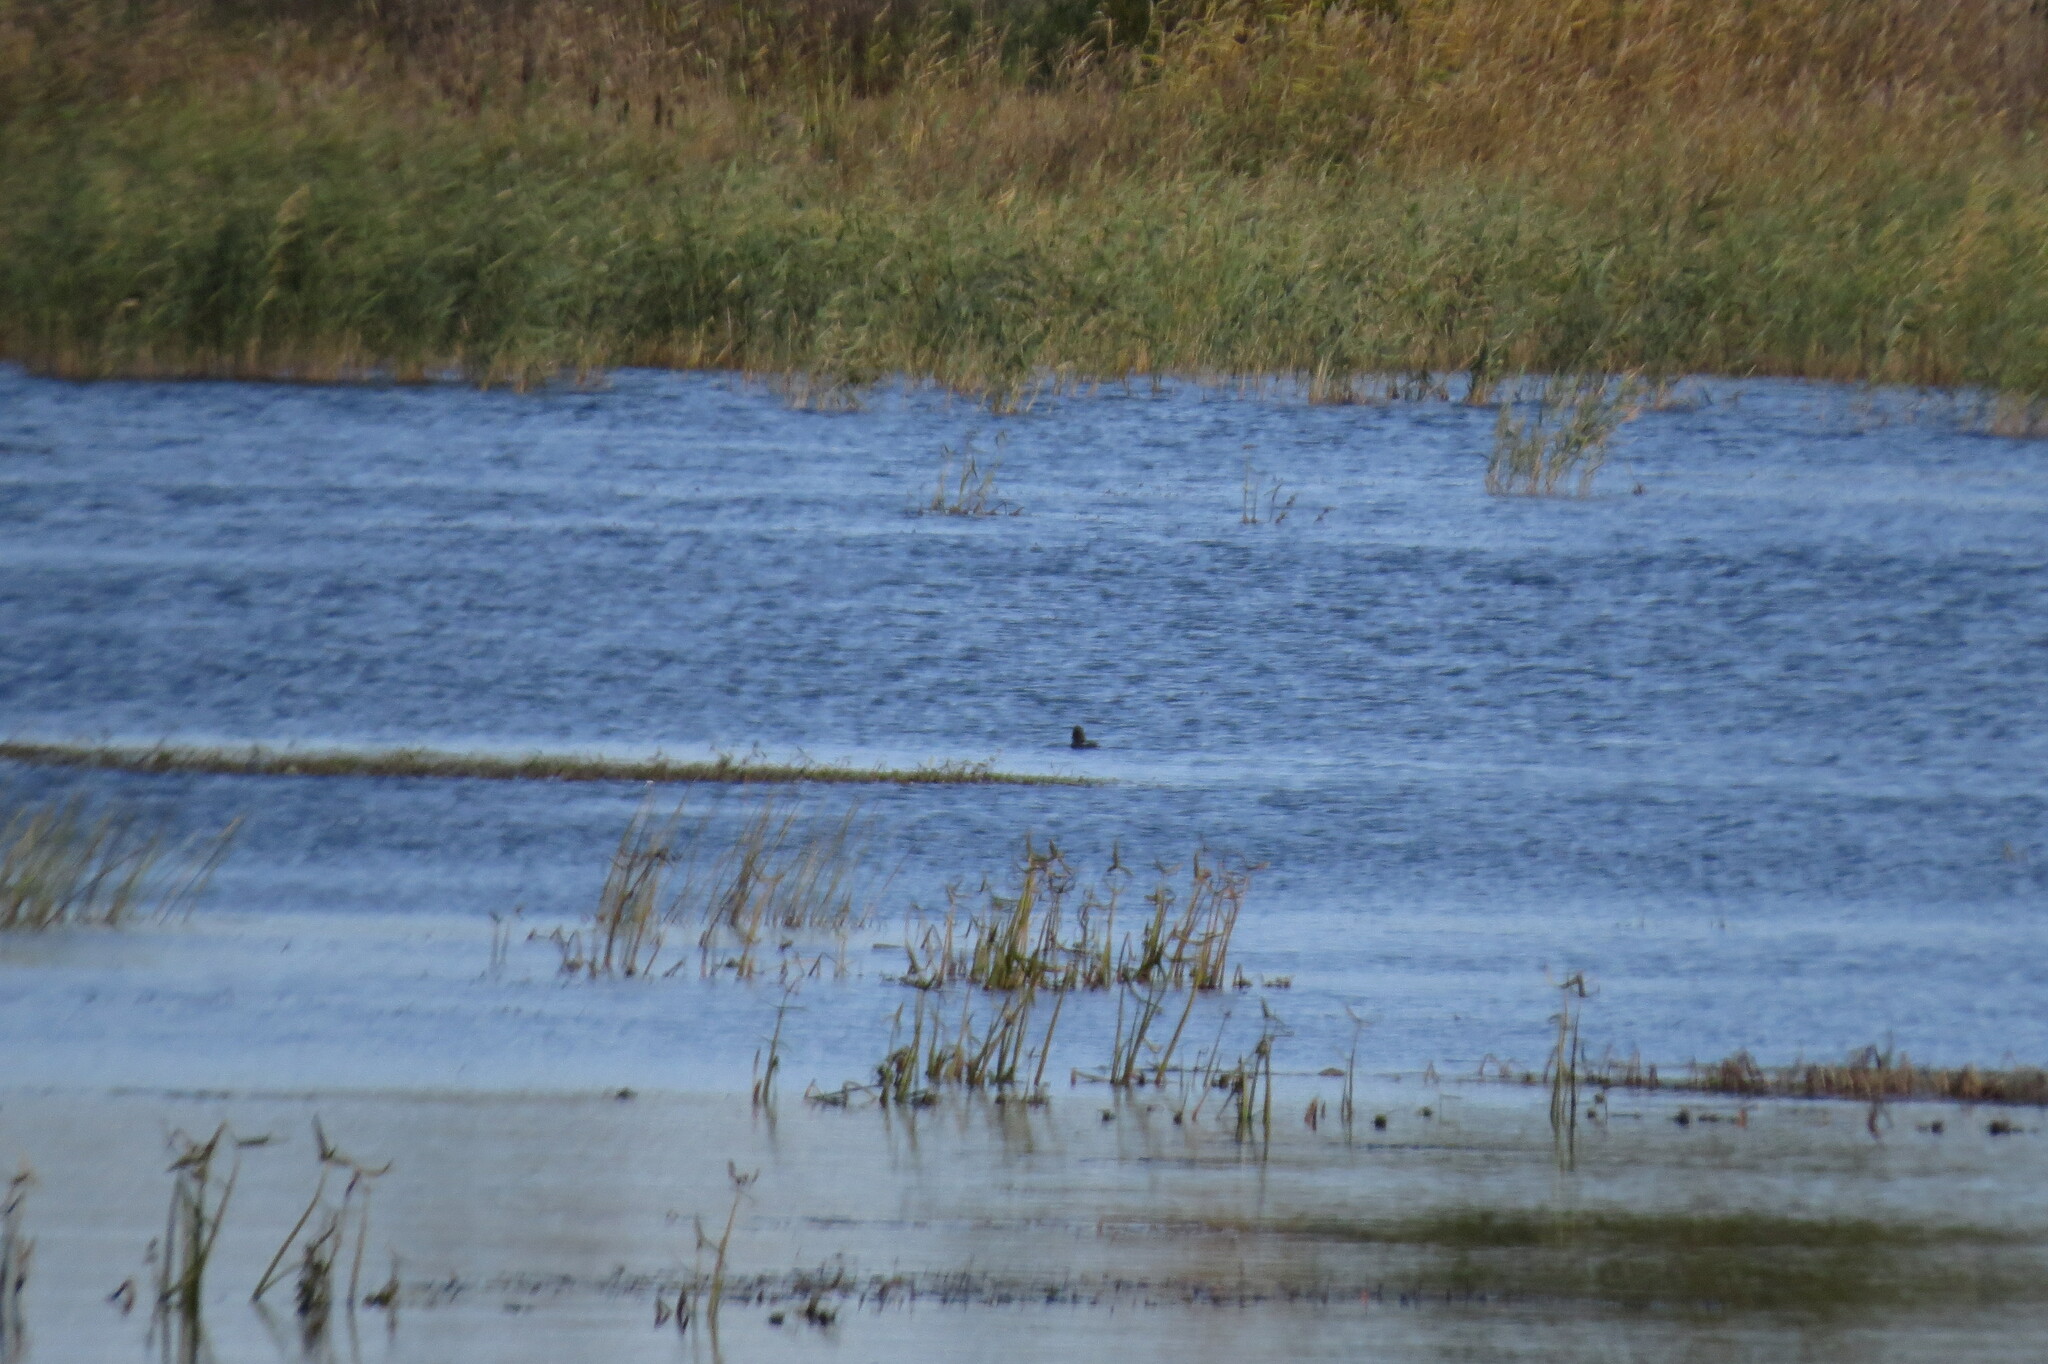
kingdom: Animalia
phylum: Chordata
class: Aves
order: Anseriformes
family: Anatidae
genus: Bucephala
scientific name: Bucephala clangula
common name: Common goldeneye
